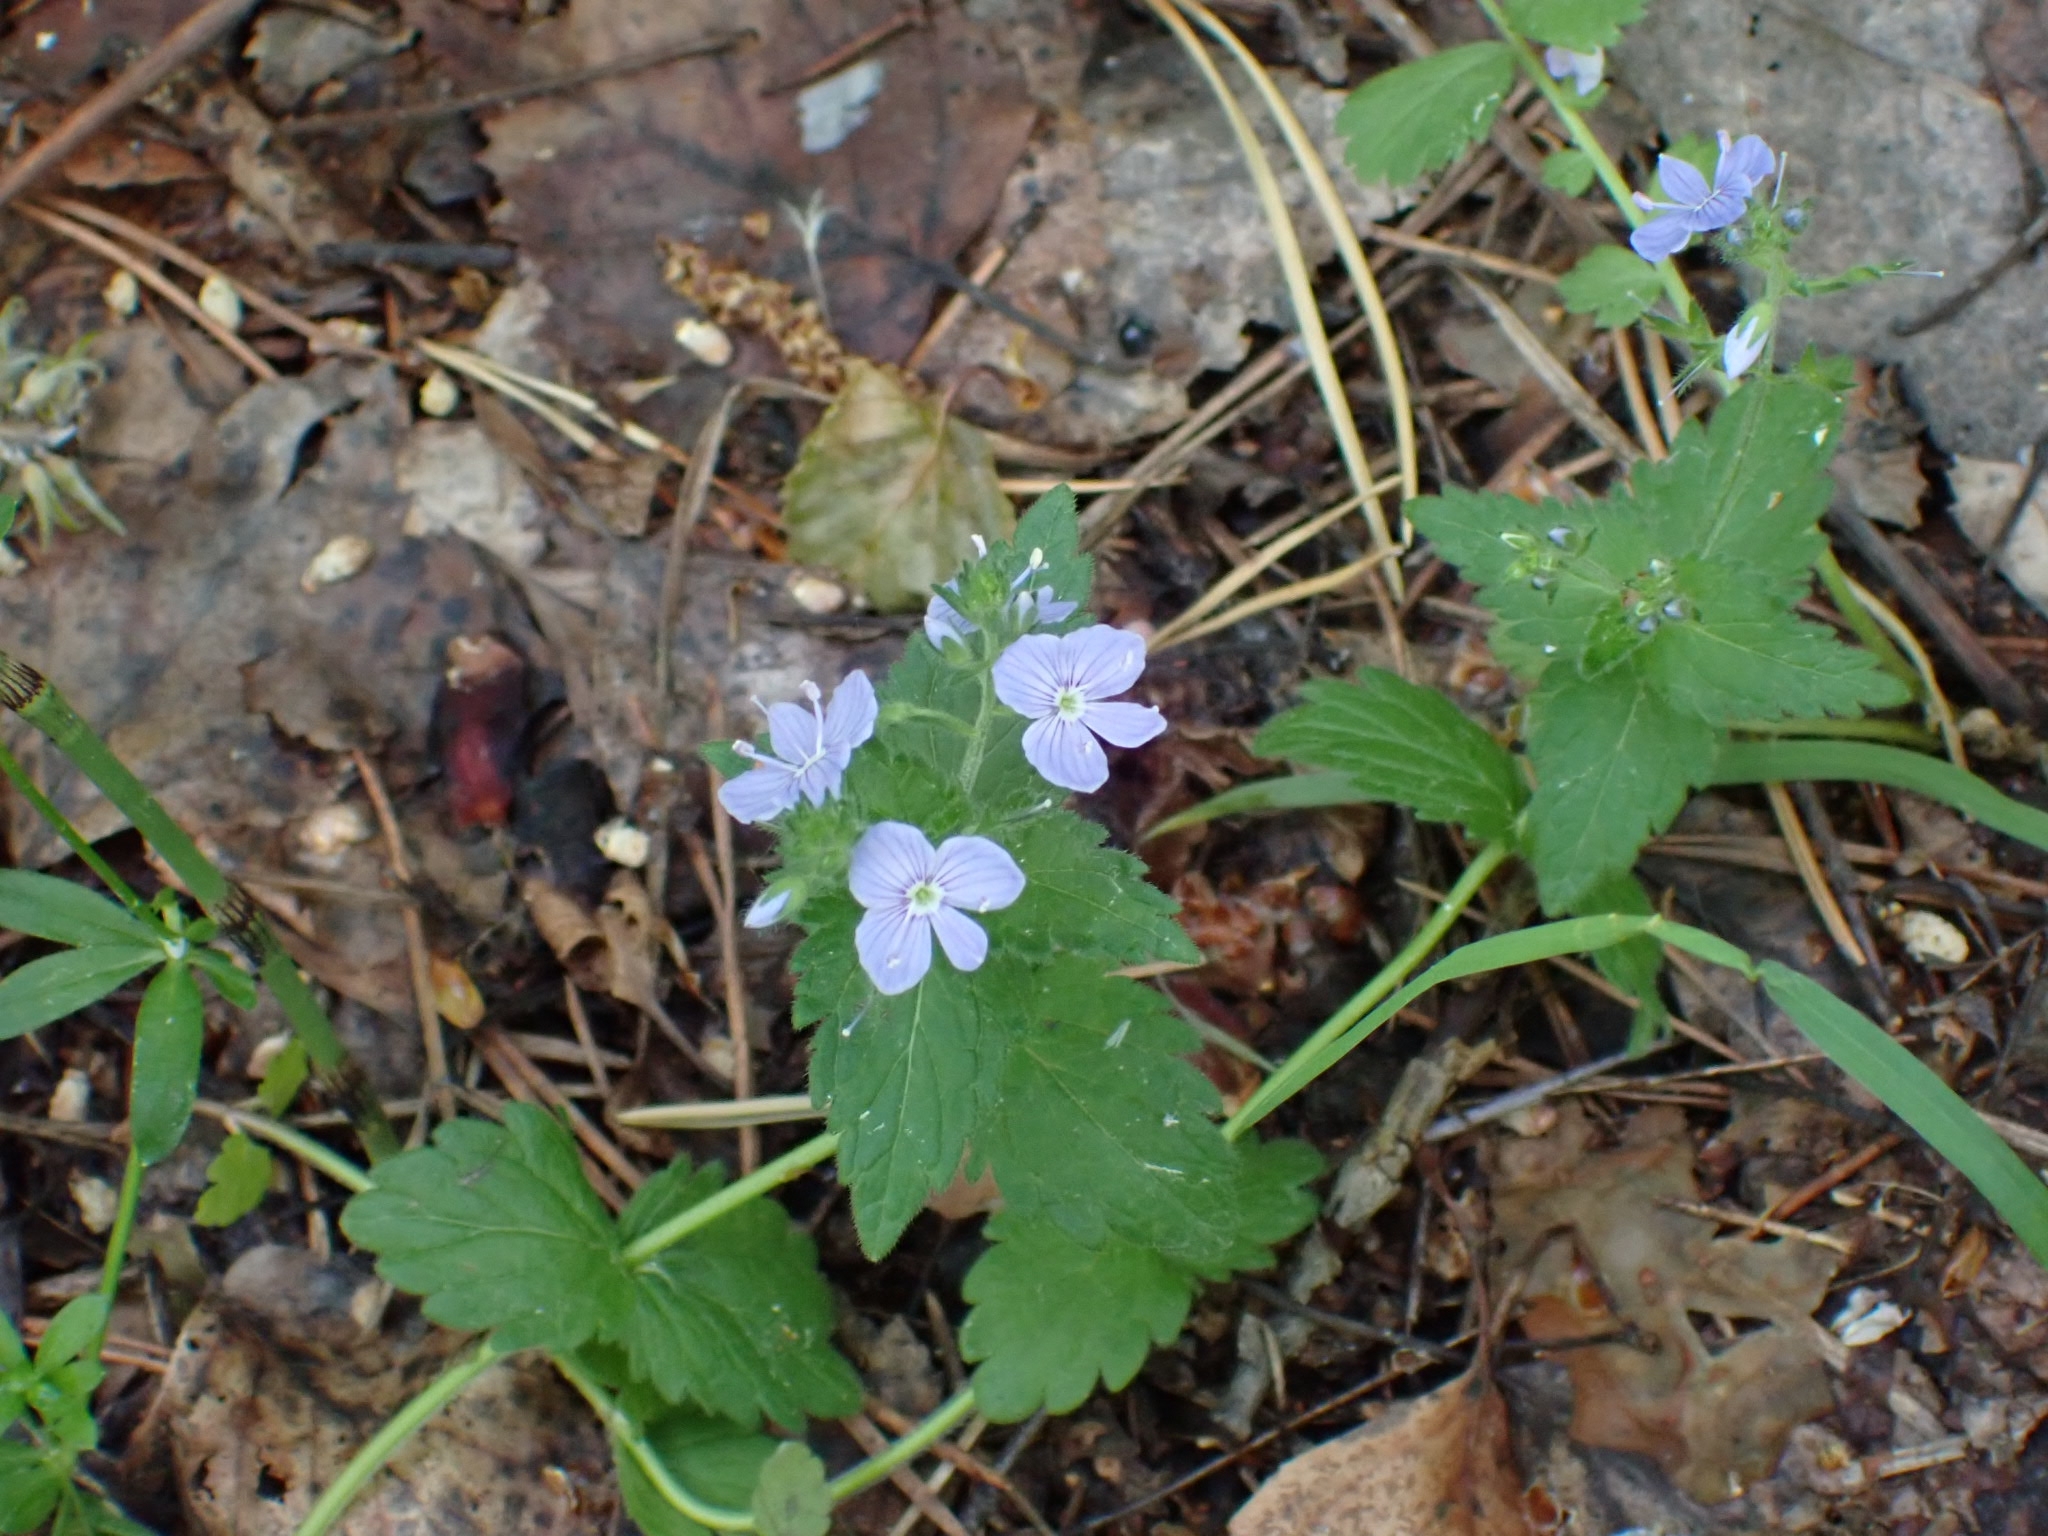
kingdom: Plantae
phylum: Tracheophyta
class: Magnoliopsida
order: Lamiales
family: Plantaginaceae
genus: Veronica
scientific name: Veronica chamaedrys
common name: Germander speedwell
